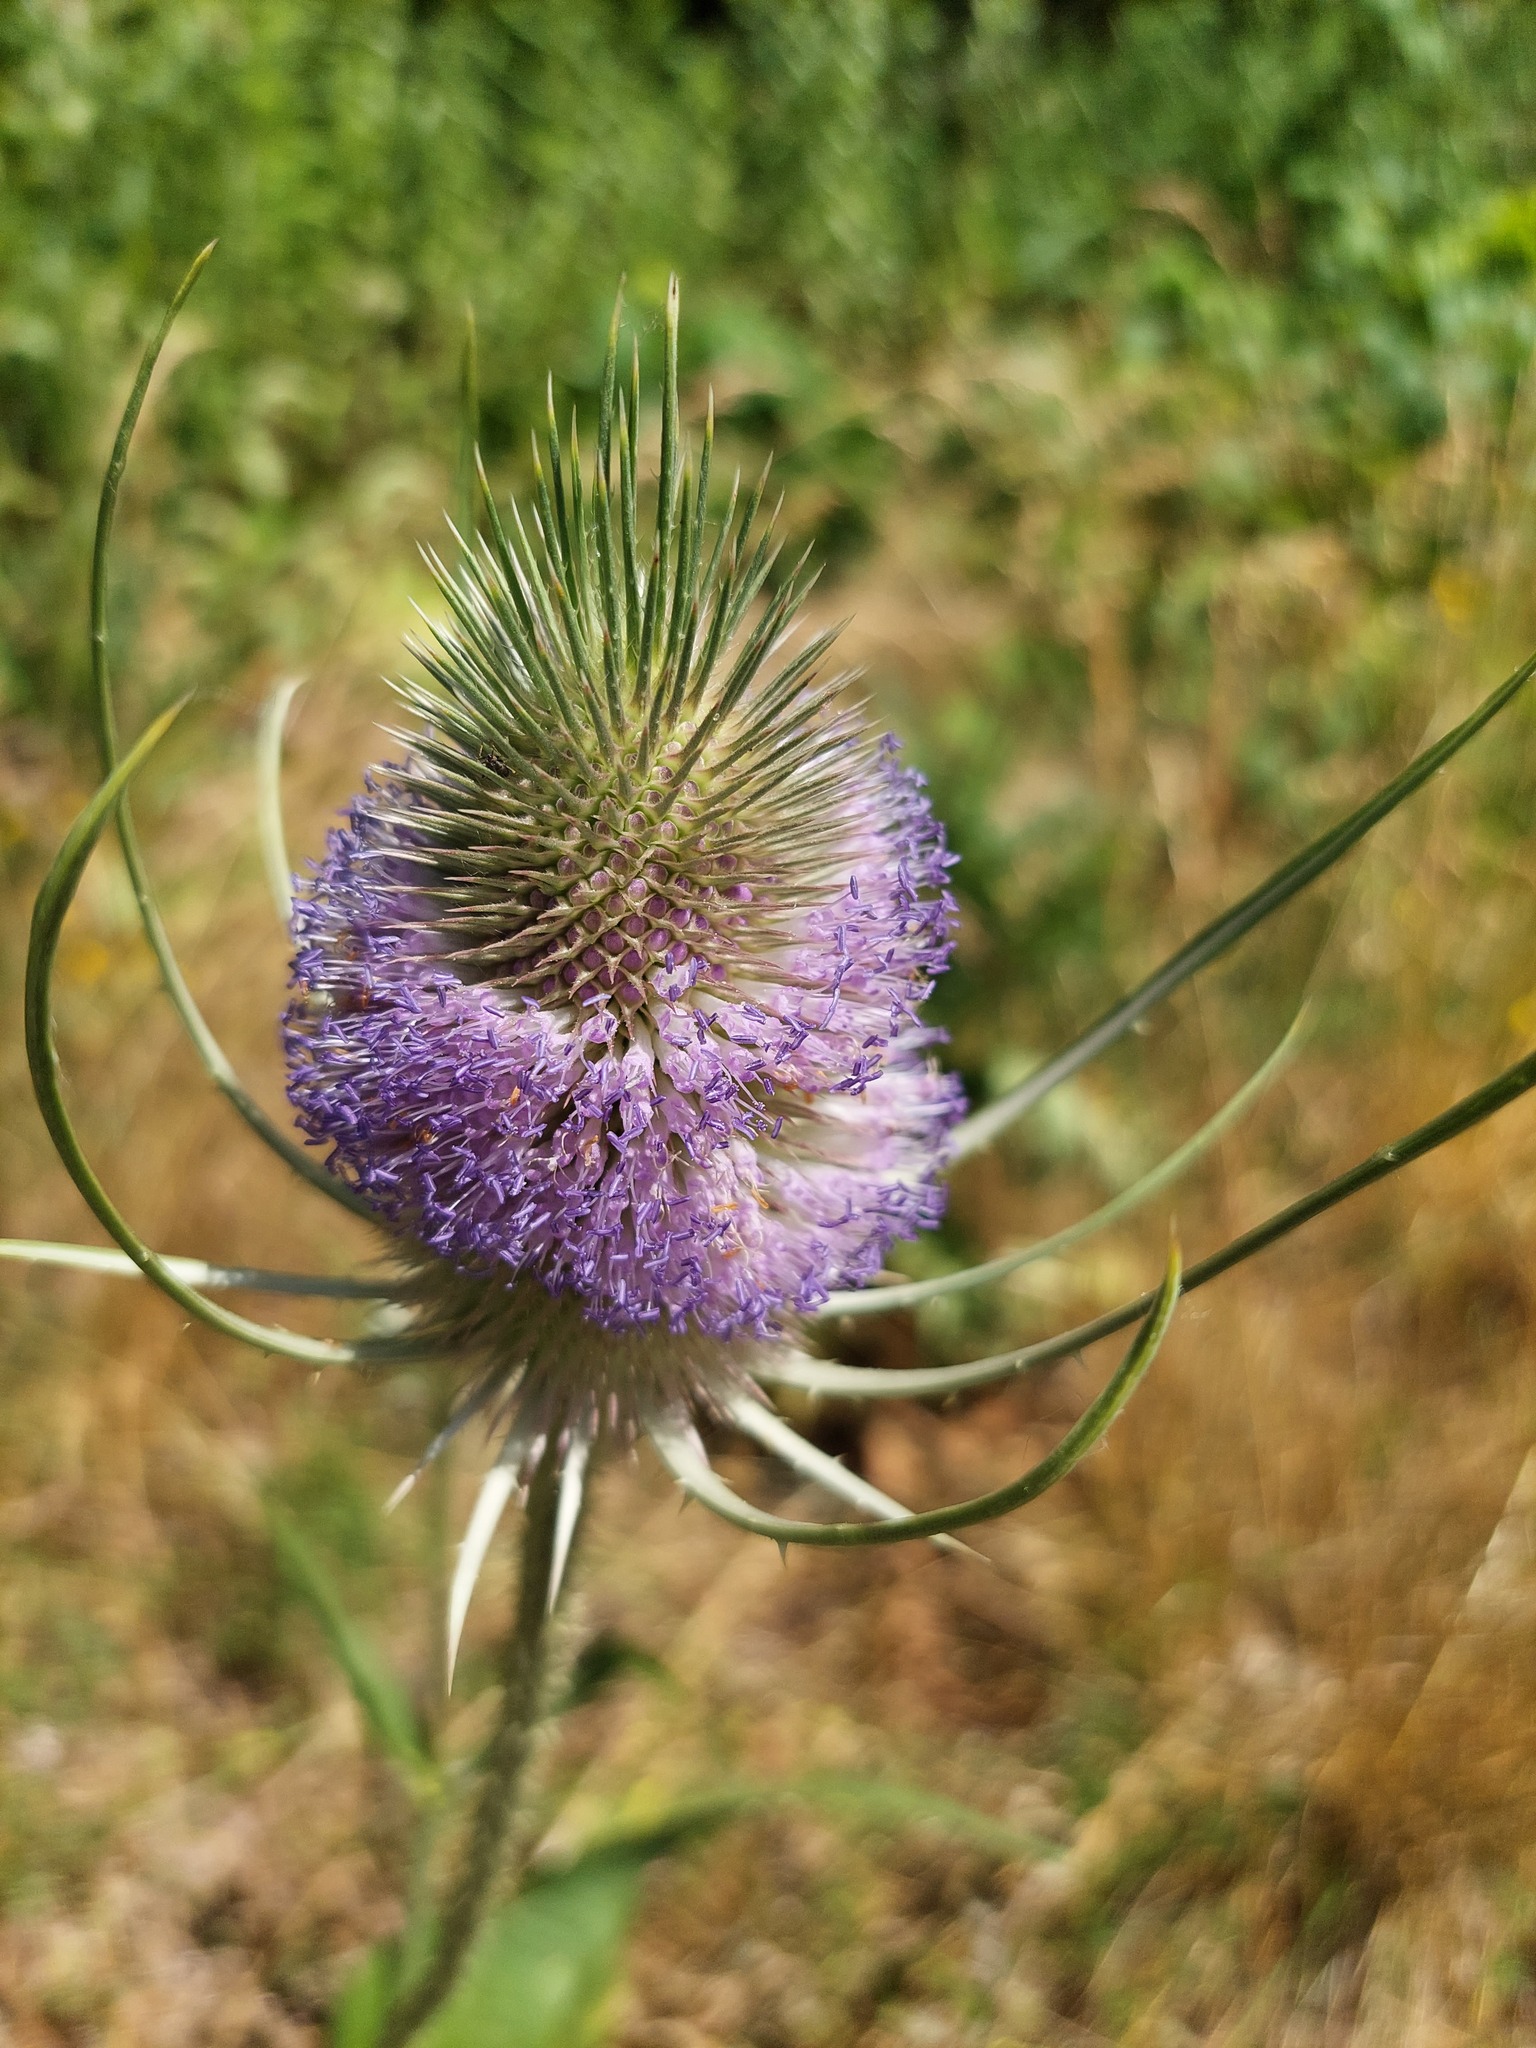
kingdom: Plantae
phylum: Tracheophyta
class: Magnoliopsida
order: Dipsacales
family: Caprifoliaceae
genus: Dipsacus
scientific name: Dipsacus fullonum
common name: Teasel
